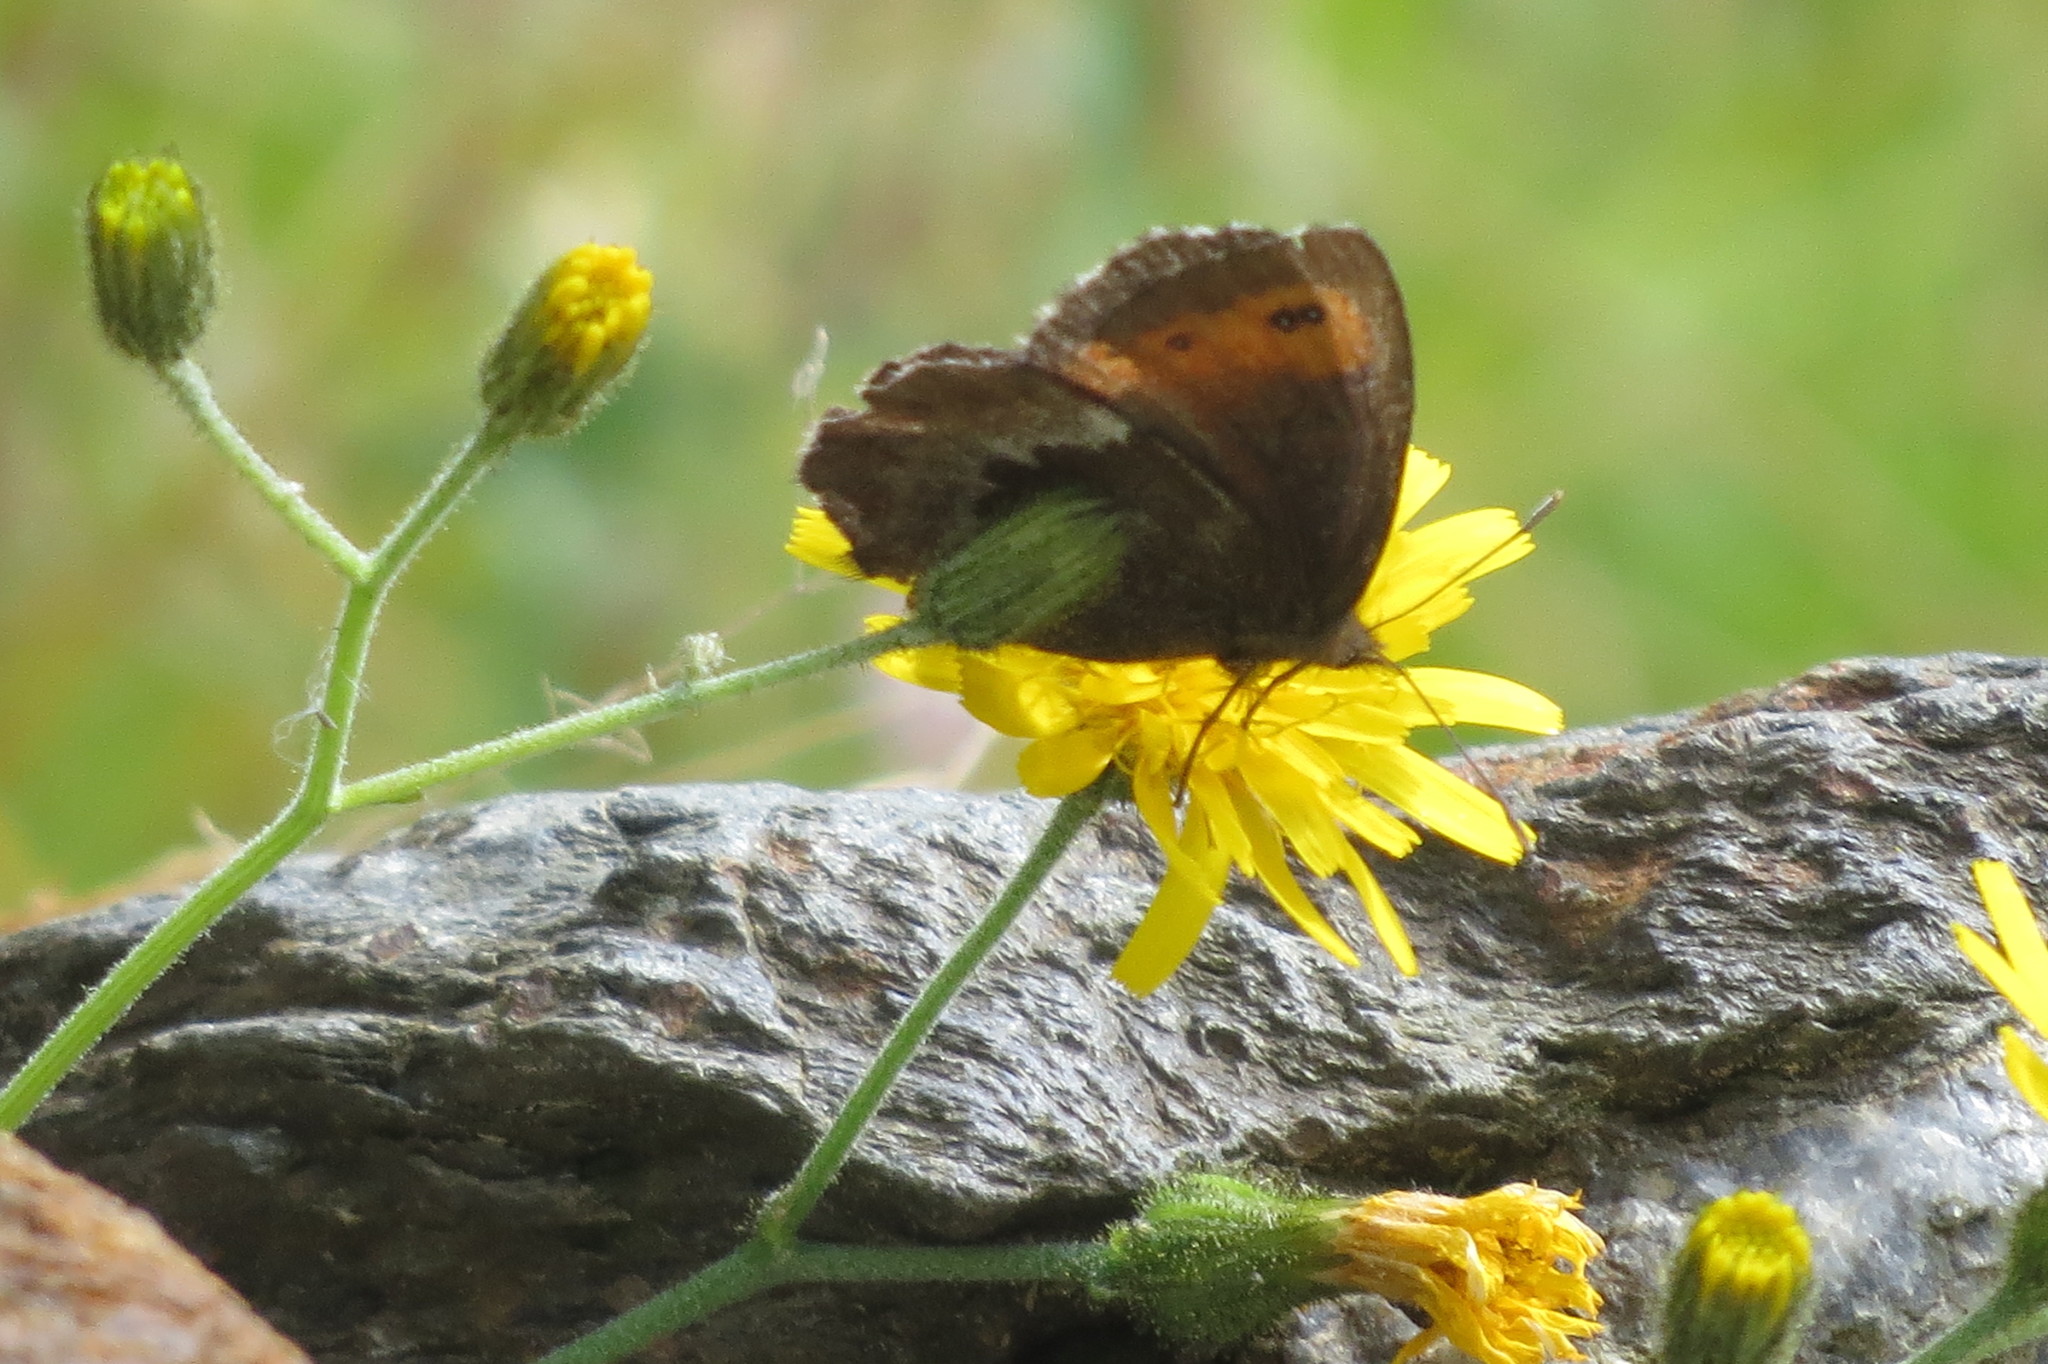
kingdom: Animalia
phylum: Arthropoda
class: Insecta
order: Lepidoptera
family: Nymphalidae
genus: Erebia
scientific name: Erebia euryale
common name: Large ringlet
